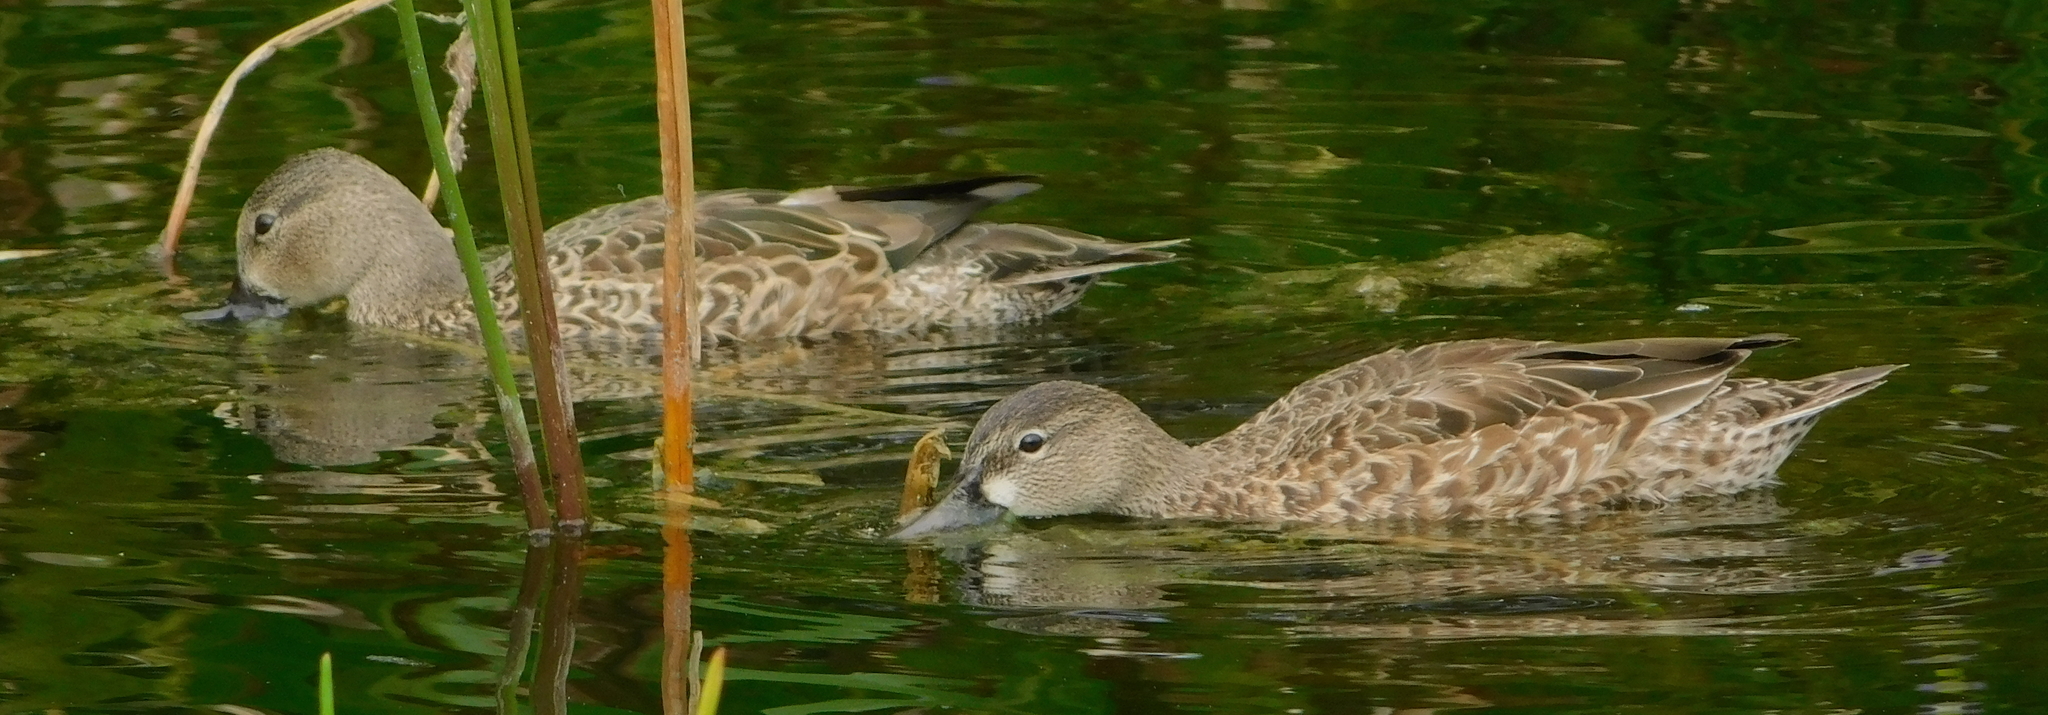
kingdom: Animalia
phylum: Chordata
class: Aves
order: Anseriformes
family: Anatidae
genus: Spatula
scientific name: Spatula discors
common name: Blue-winged teal
